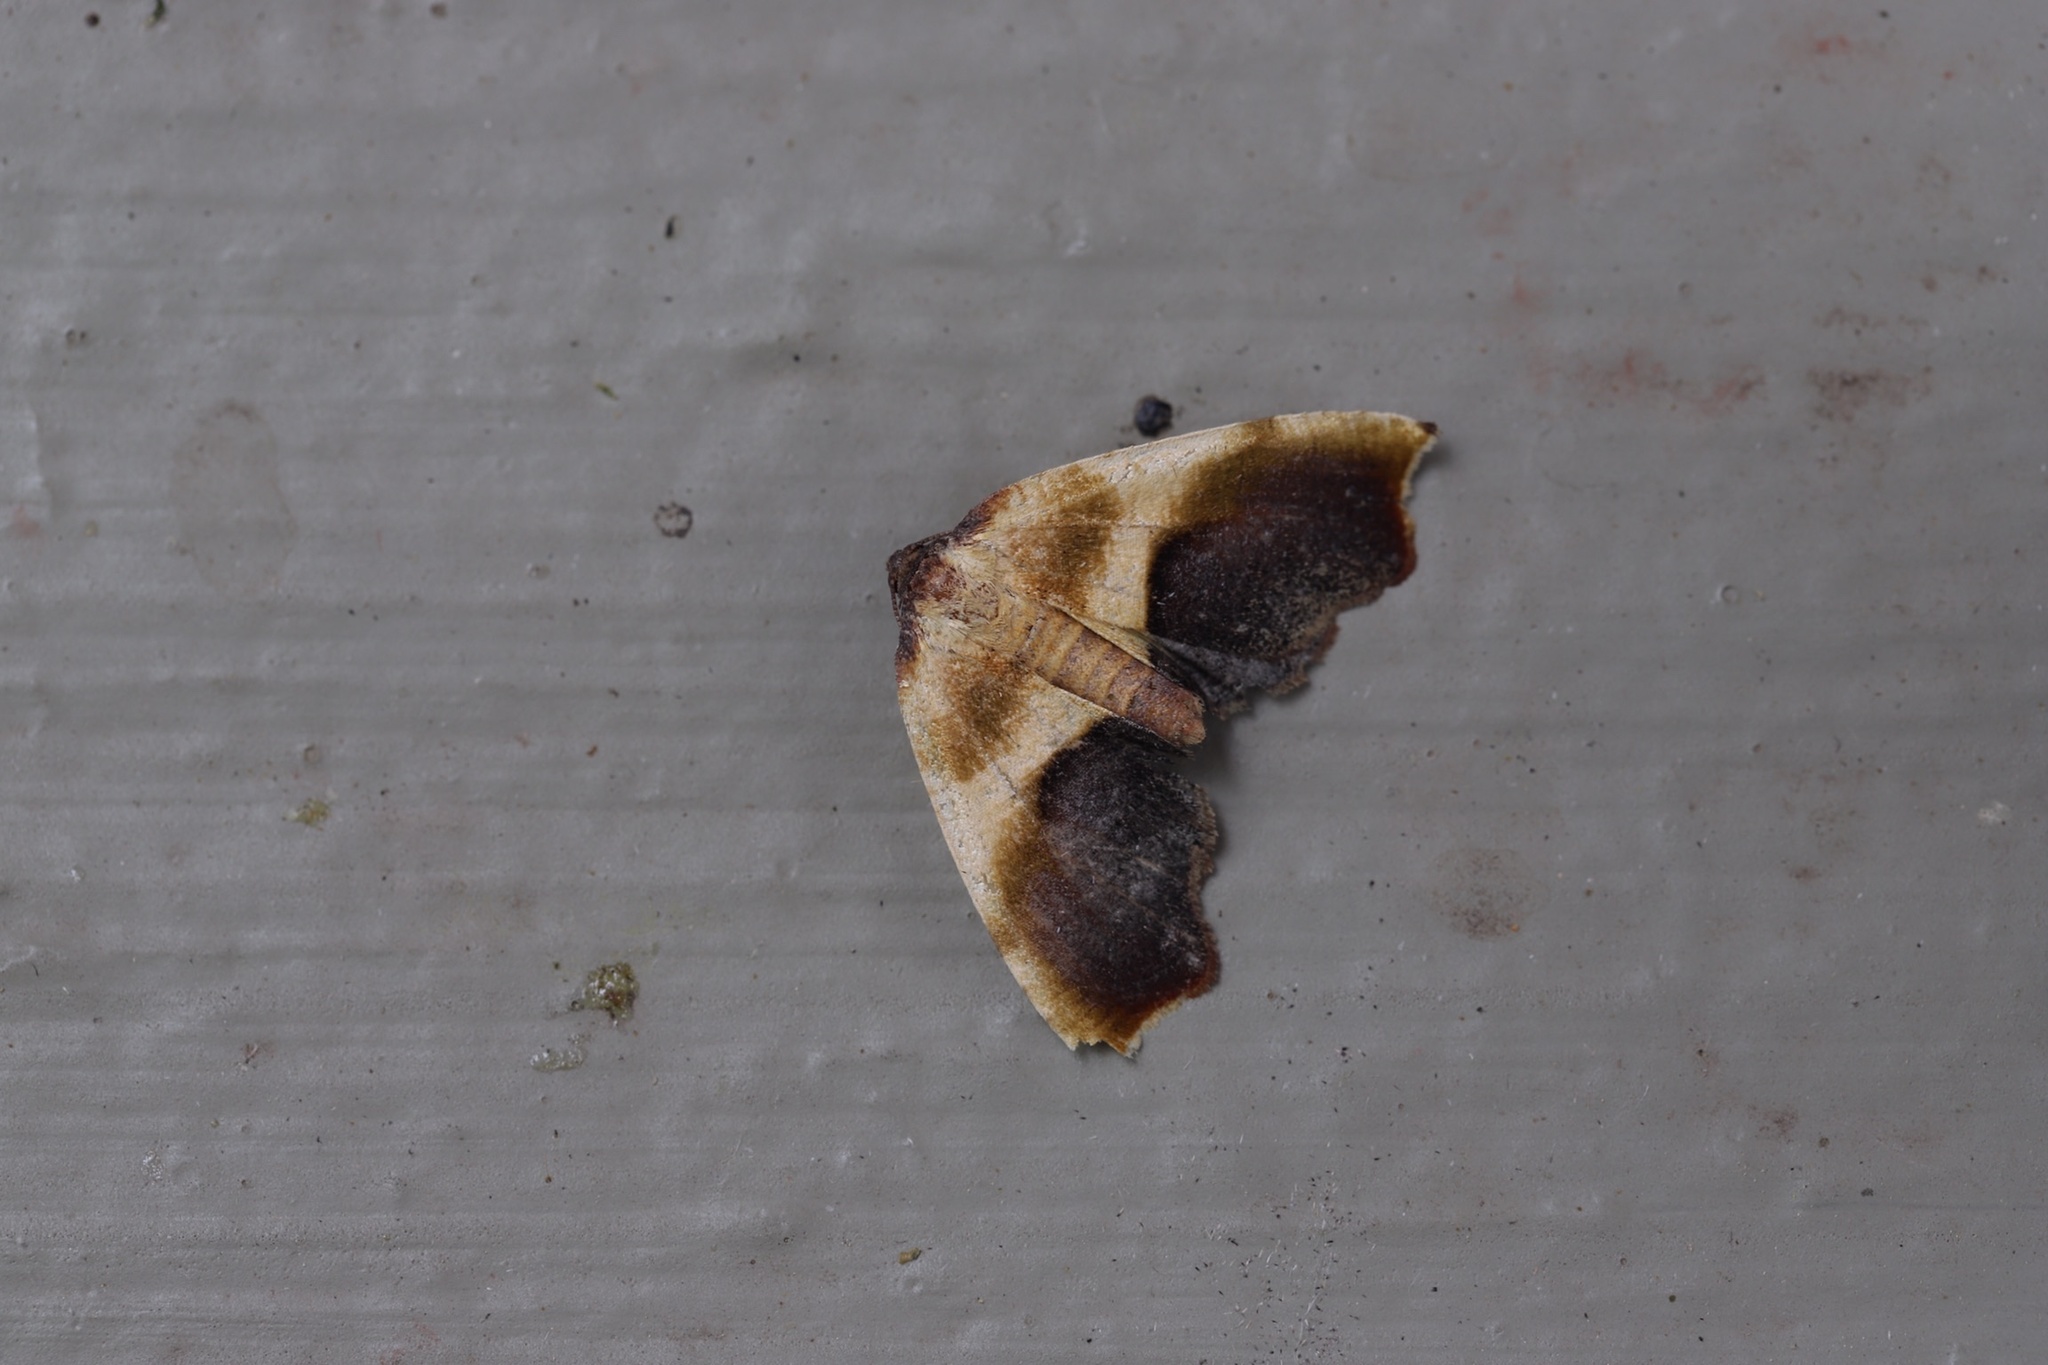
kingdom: Animalia
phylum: Arthropoda
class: Insecta
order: Lepidoptera
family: Geometridae
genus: Plagodis
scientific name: Plagodis kuetzingi
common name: Purple plagodis
